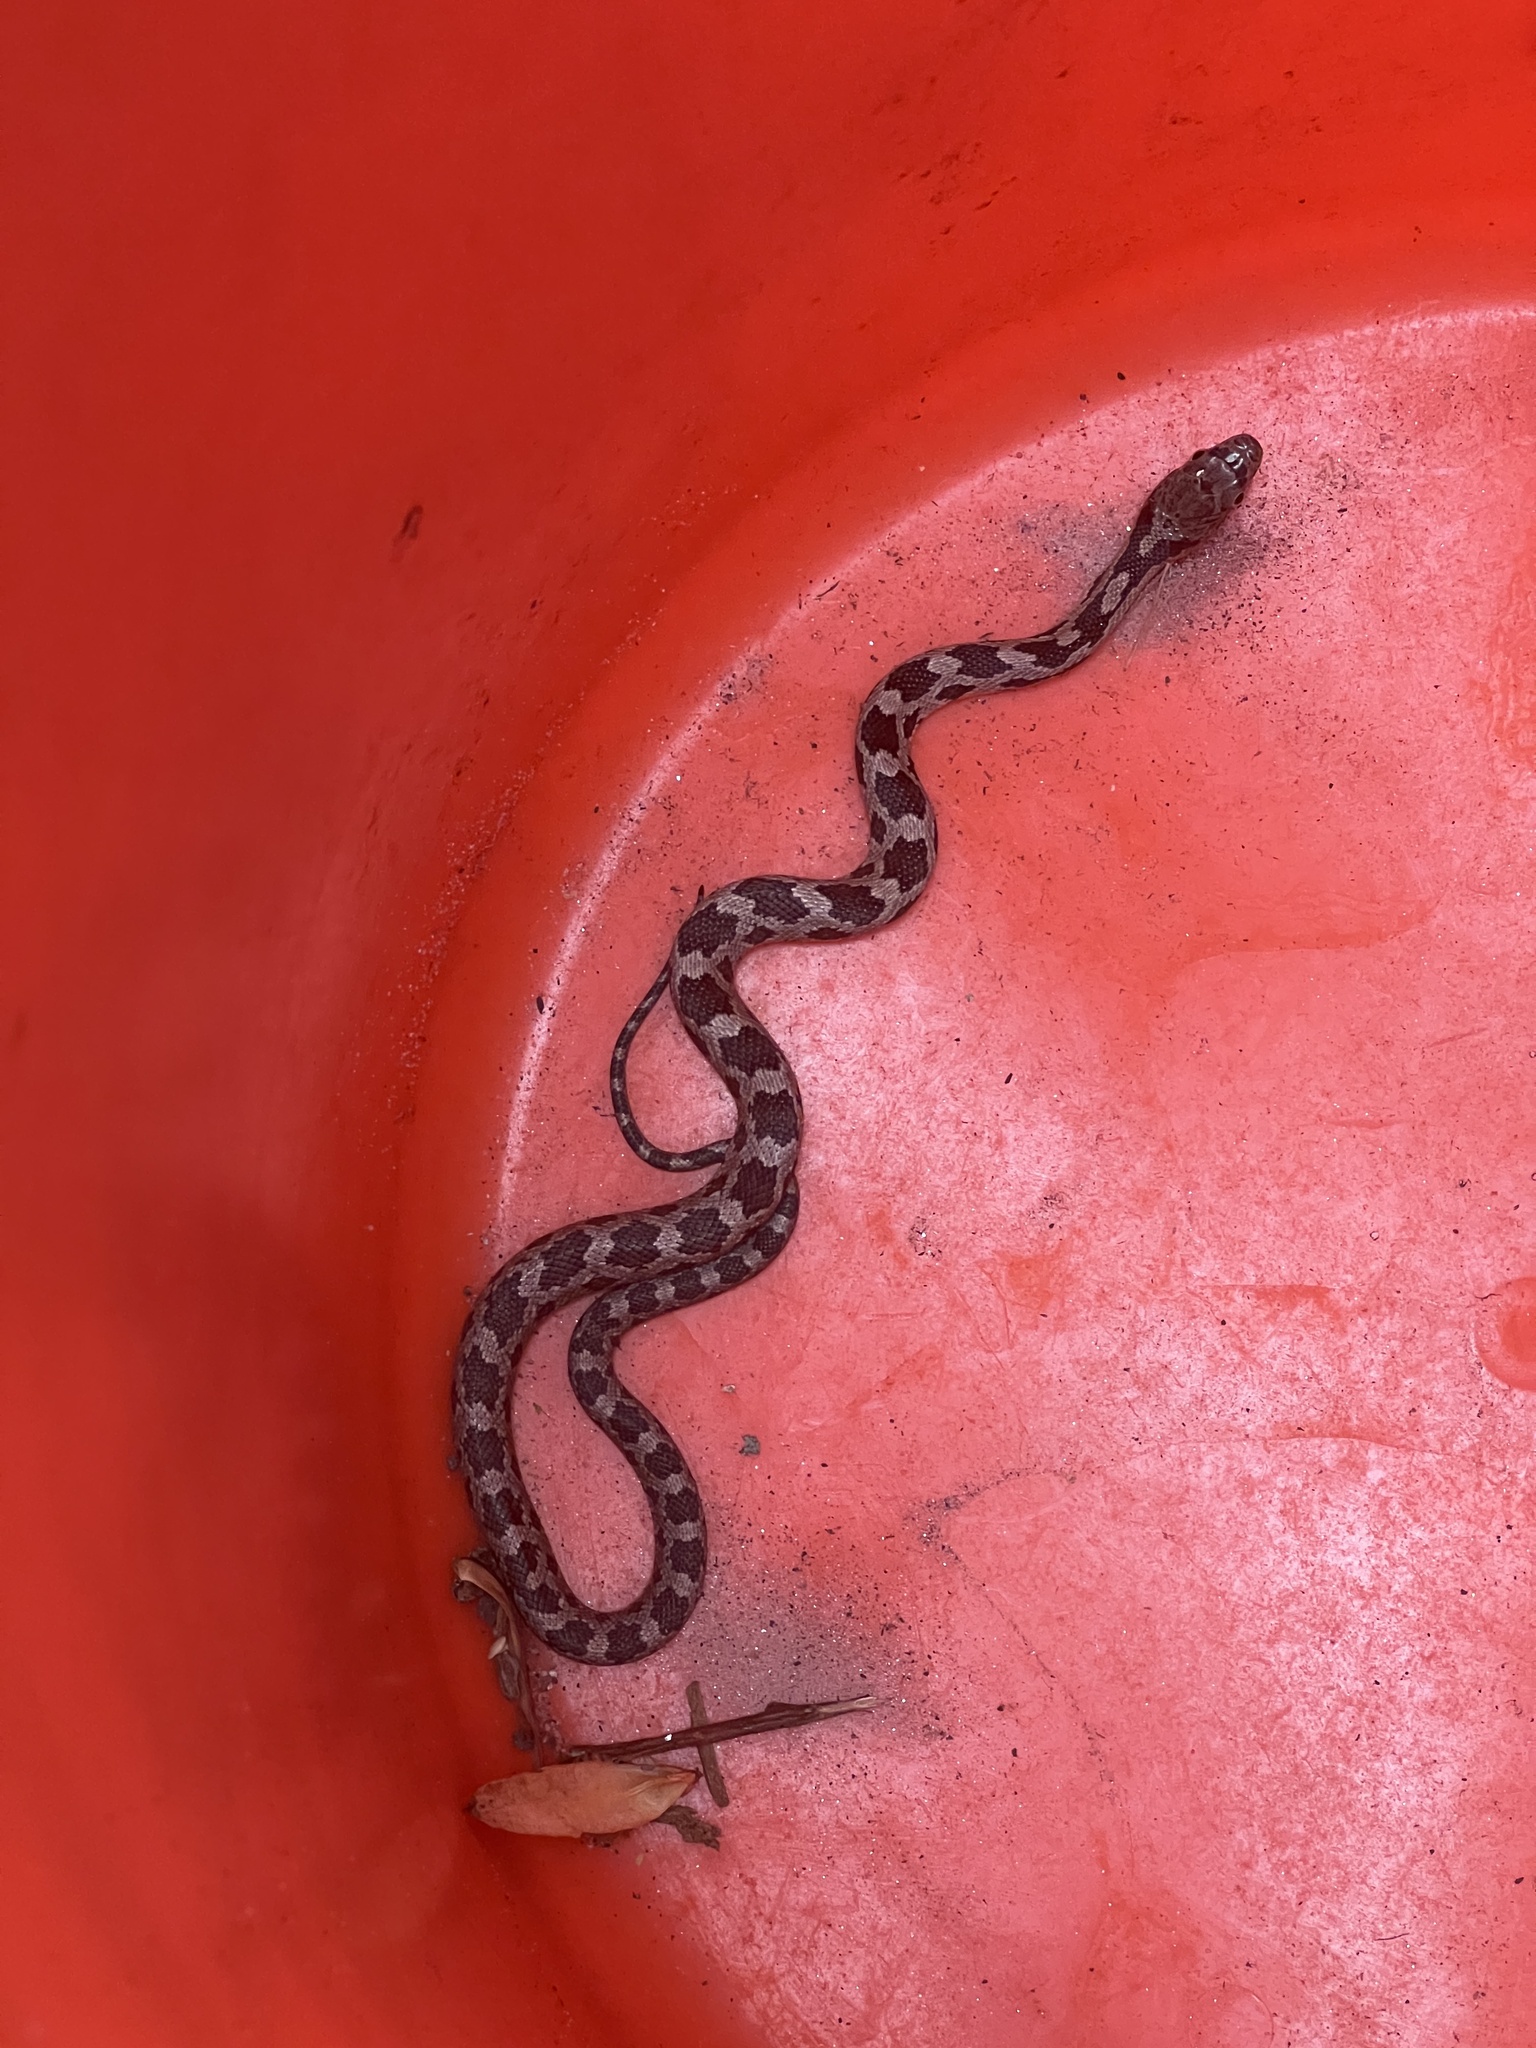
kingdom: Animalia
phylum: Chordata
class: Squamata
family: Colubridae
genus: Pantherophis
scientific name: Pantherophis
